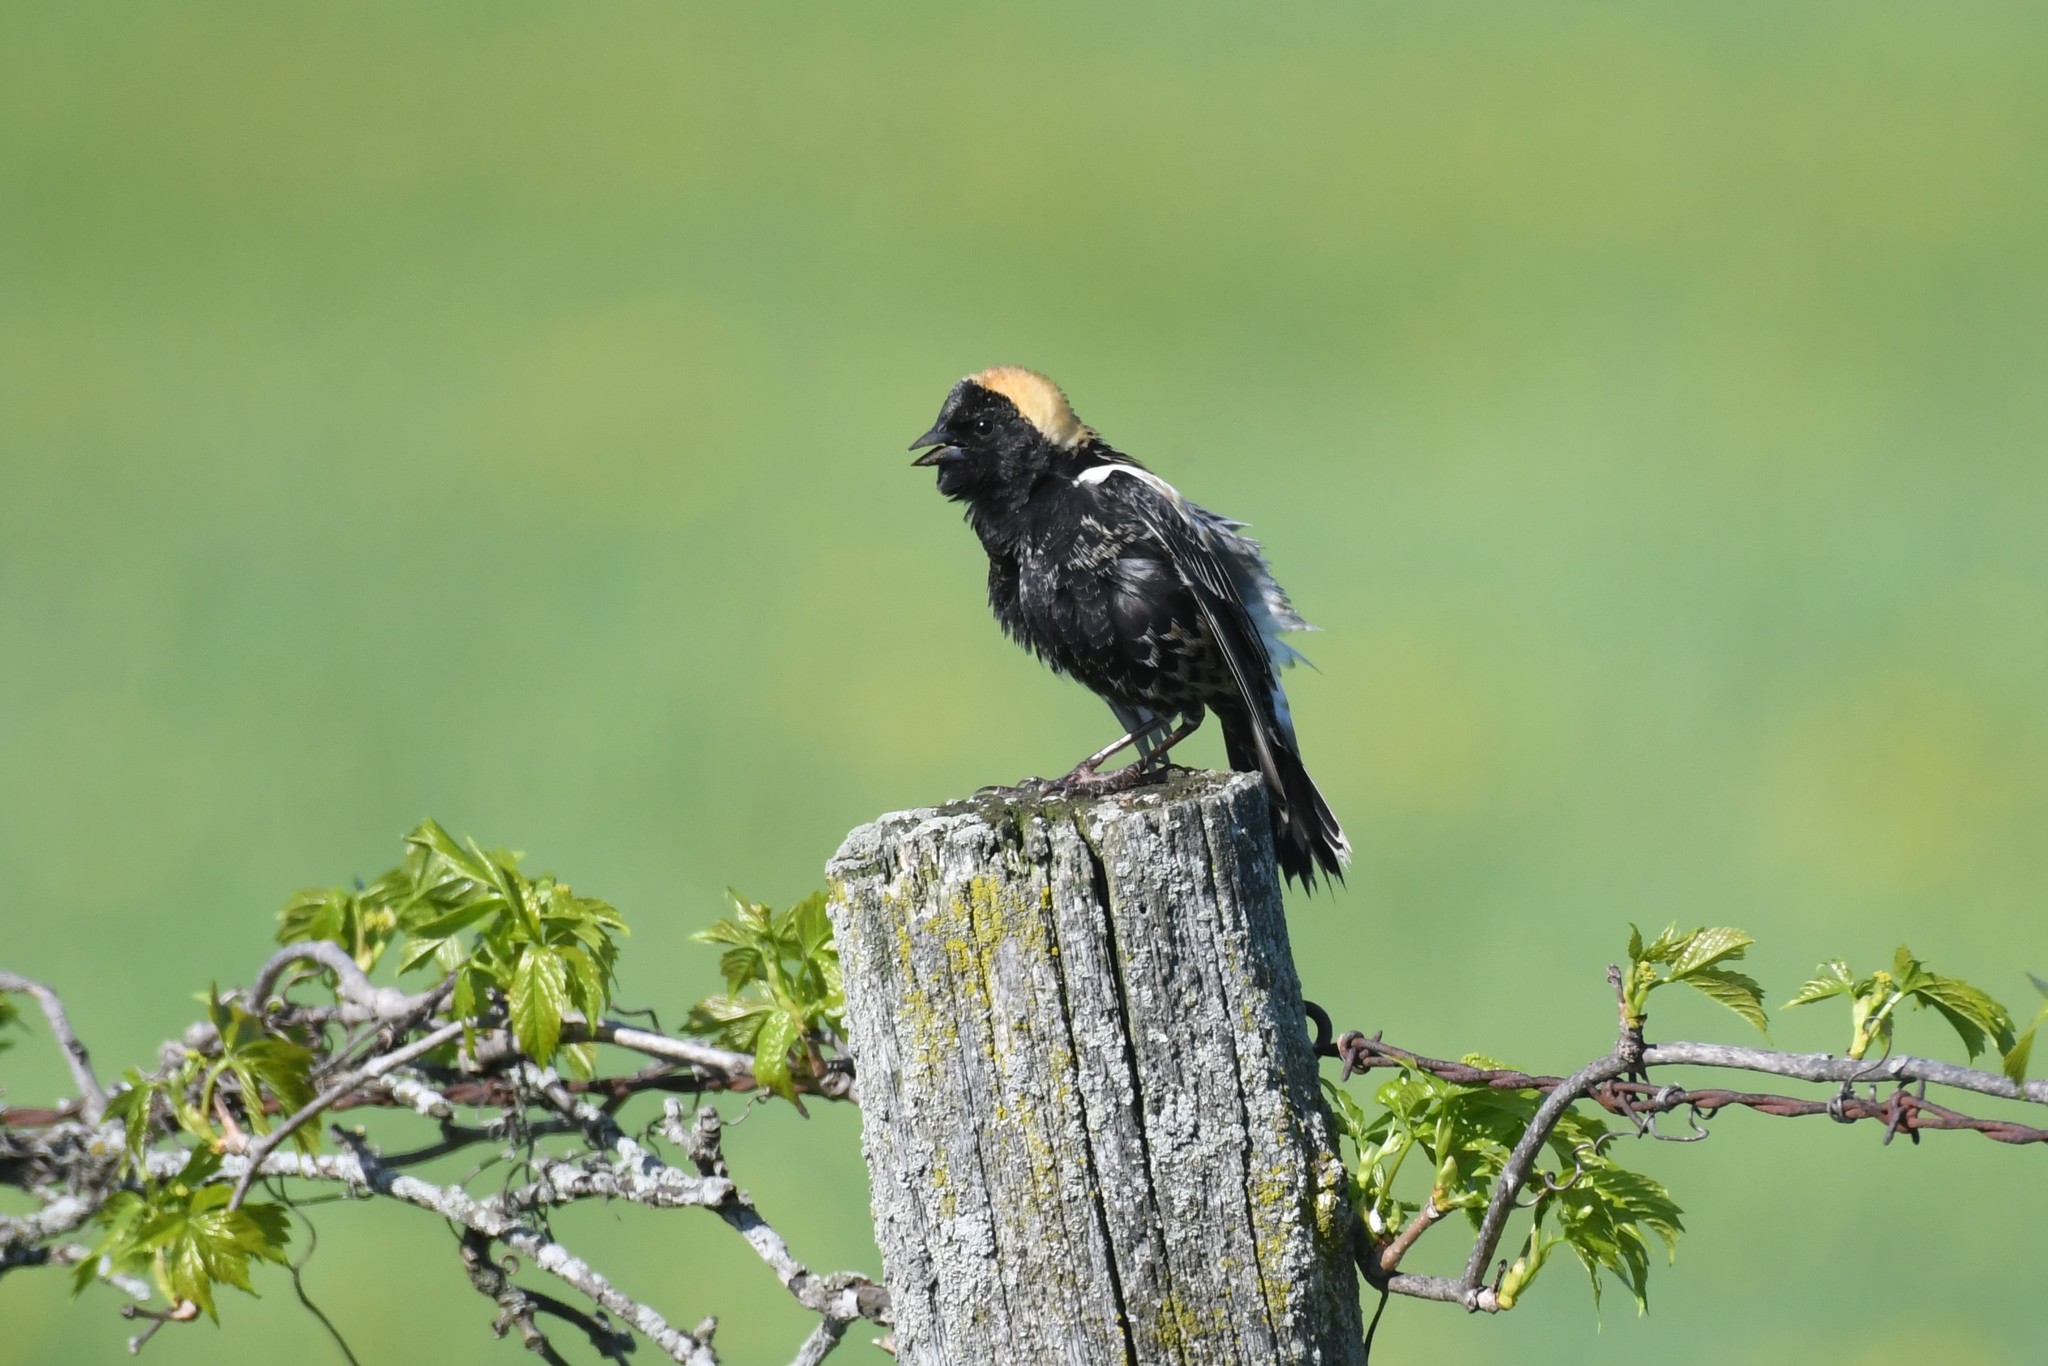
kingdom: Animalia
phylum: Chordata
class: Aves
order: Passeriformes
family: Icteridae
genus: Dolichonyx
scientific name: Dolichonyx oryzivorus
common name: Bobolink
